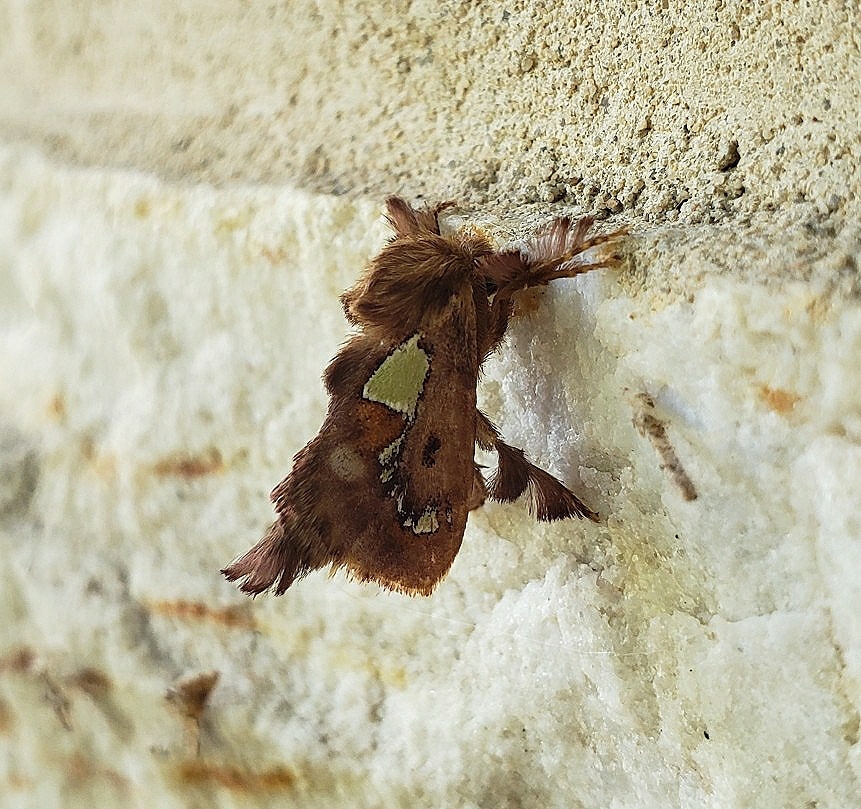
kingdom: Animalia
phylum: Arthropoda
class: Insecta
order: Lepidoptera
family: Limacodidae
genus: Euclea
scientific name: Euclea delphinii
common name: Spiny oak-slug moth
